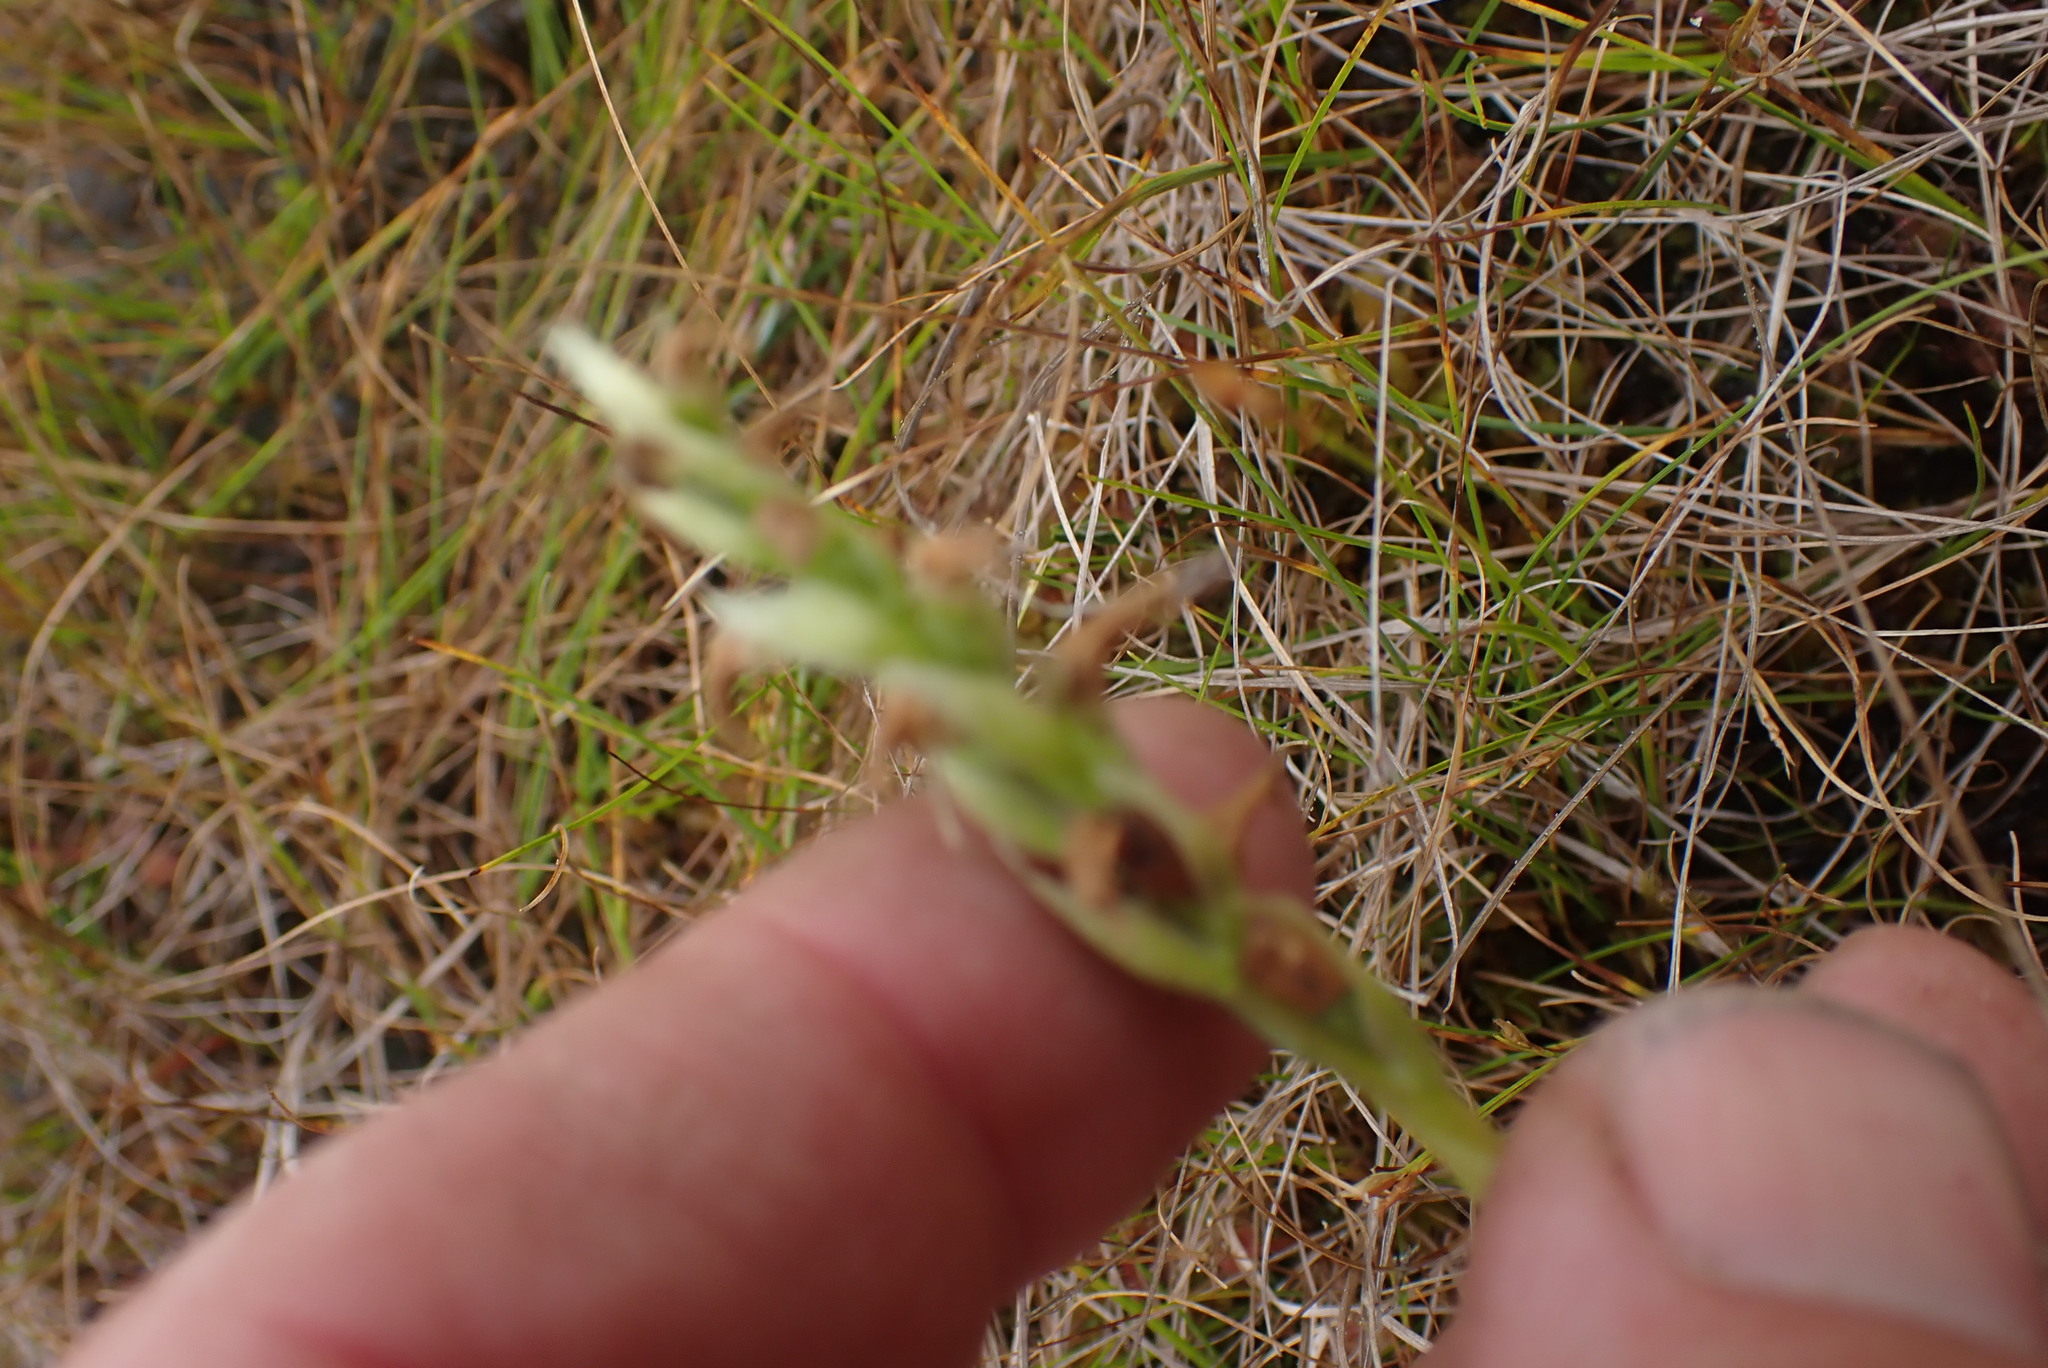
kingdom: Plantae
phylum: Tracheophyta
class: Liliopsida
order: Asparagales
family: Orchidaceae
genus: Spiranthes
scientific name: Spiranthes romanzoffiana
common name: Irish lady's-tresses
